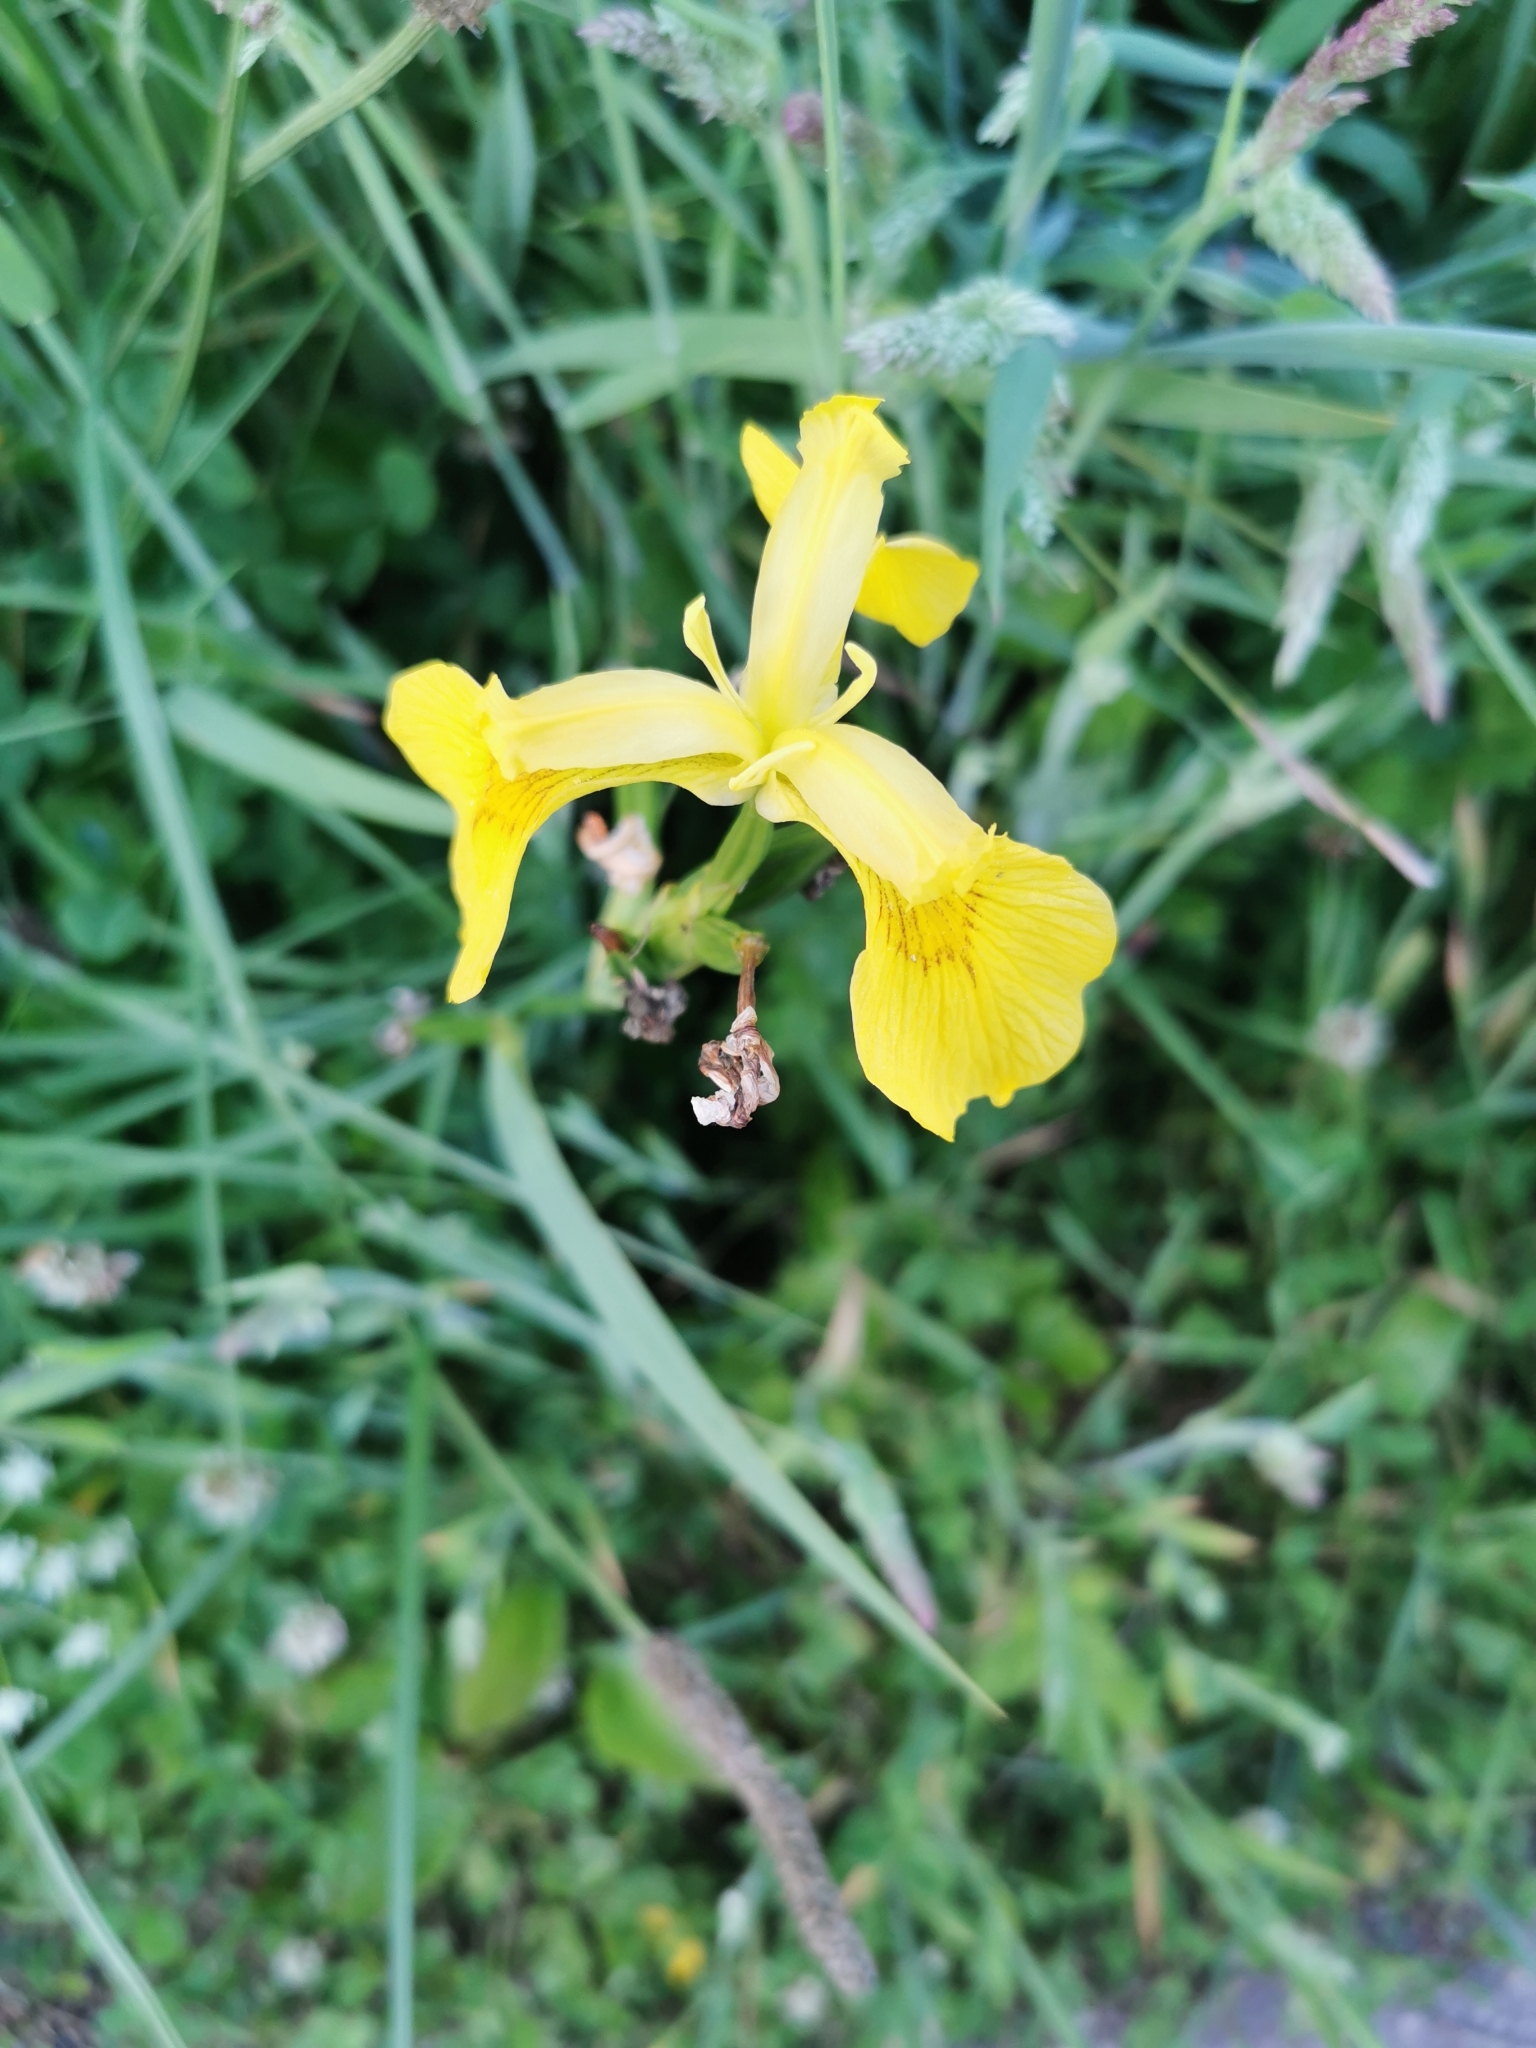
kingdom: Plantae
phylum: Tracheophyta
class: Liliopsida
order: Asparagales
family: Iridaceae
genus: Iris
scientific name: Iris pseudacorus
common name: Yellow flag
